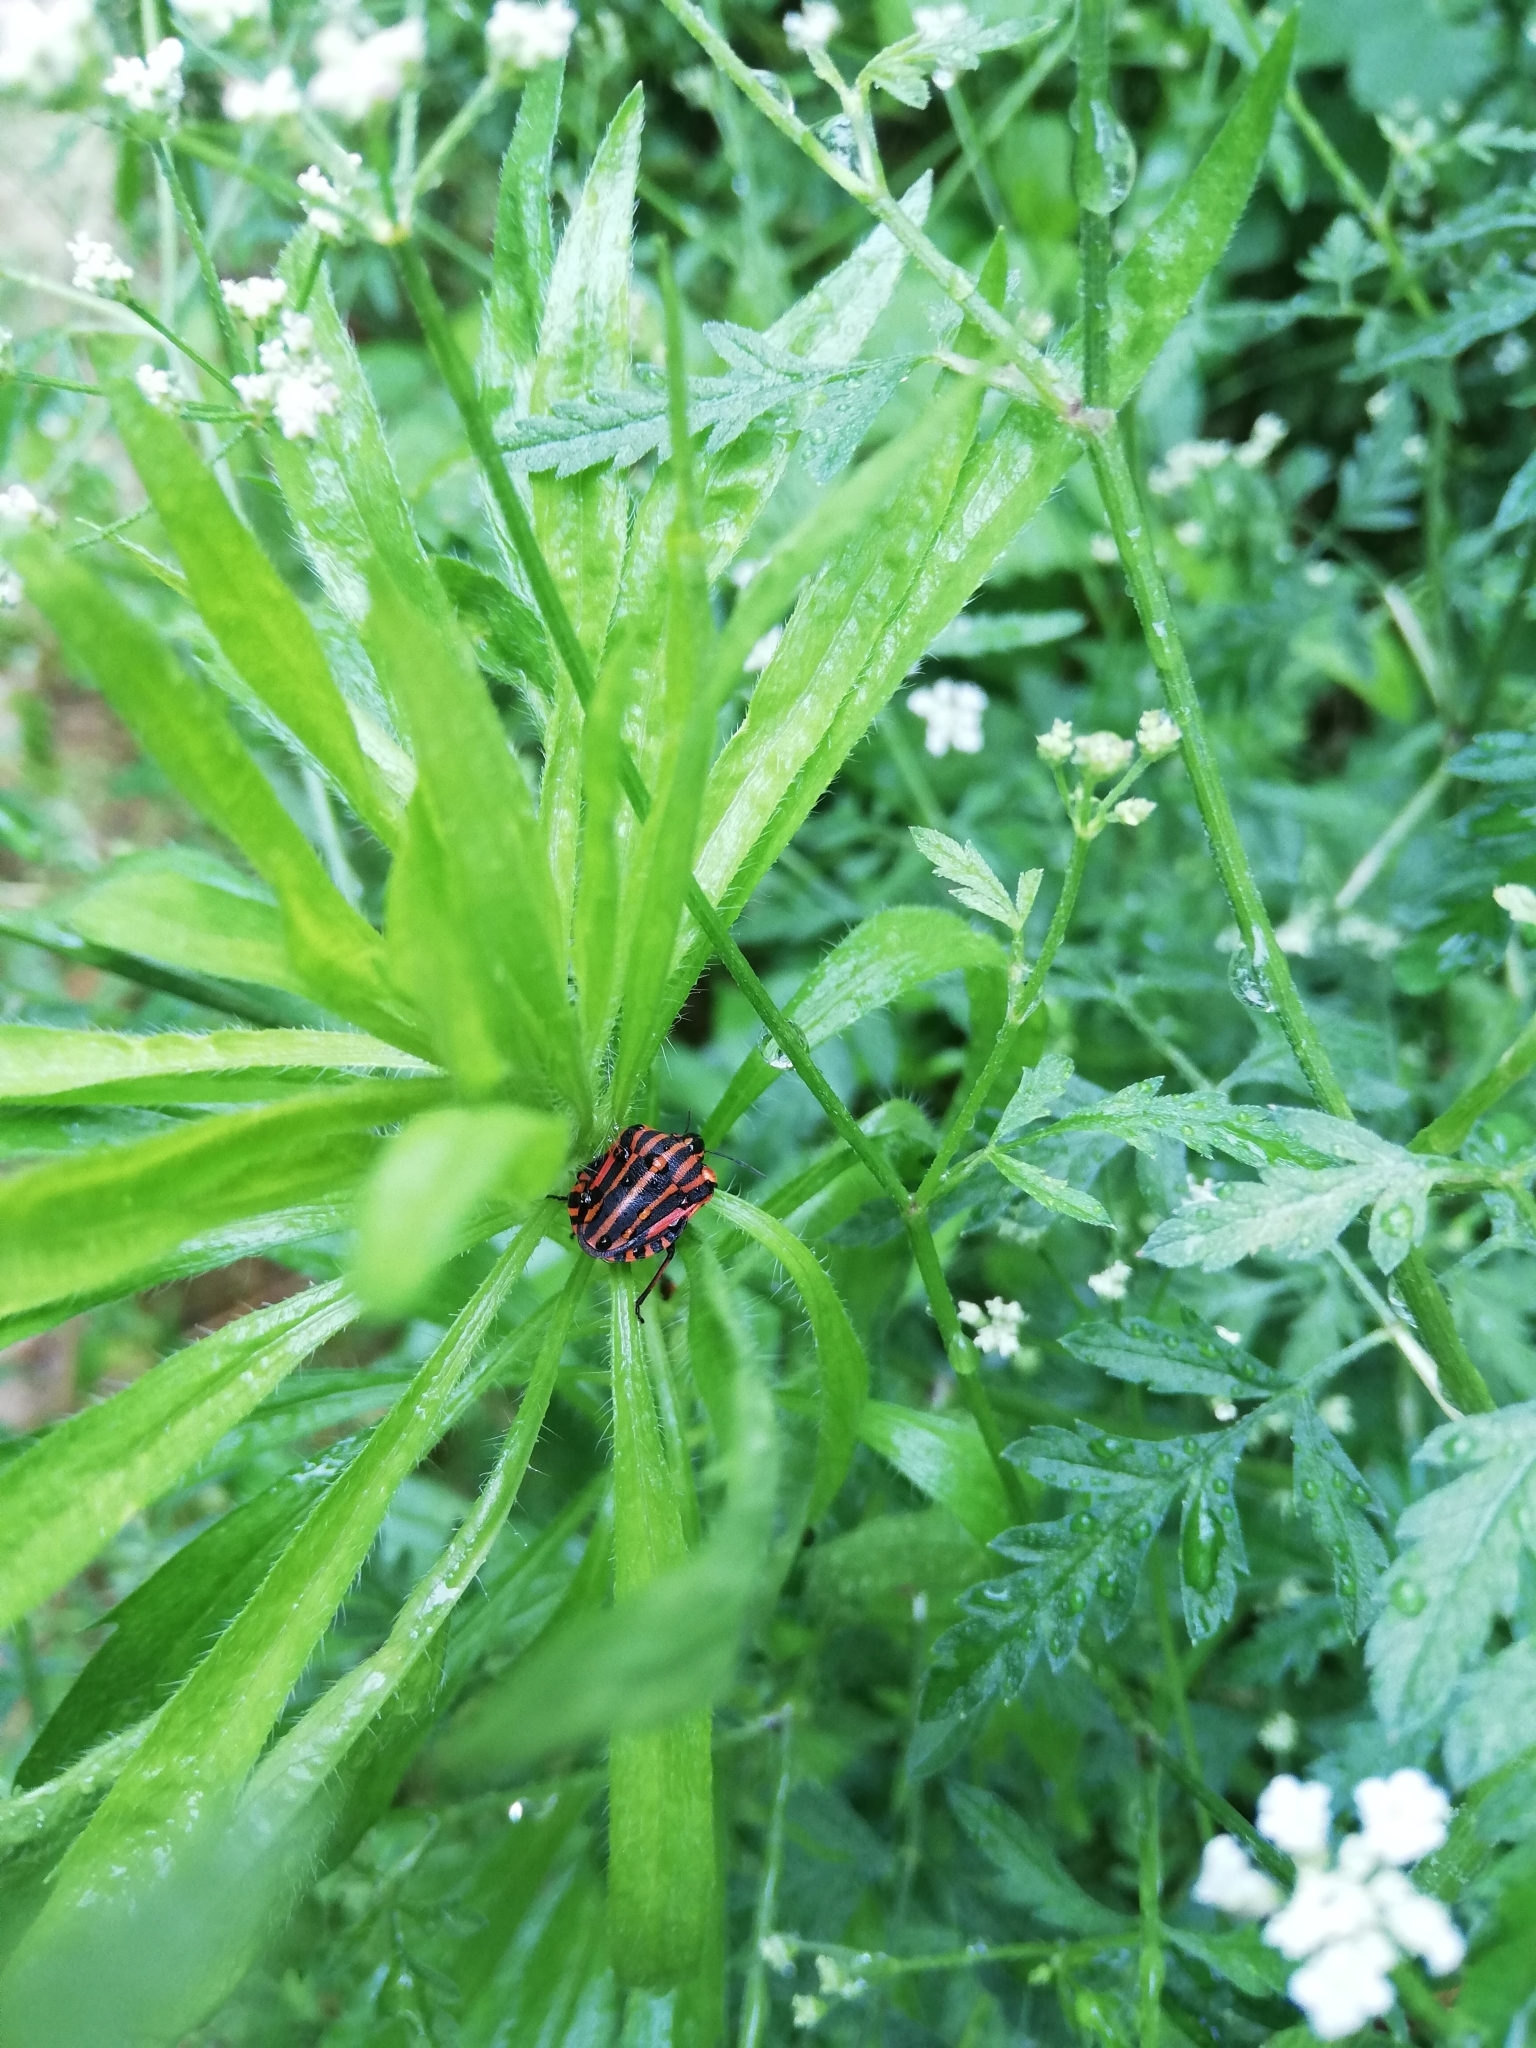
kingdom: Animalia
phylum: Arthropoda
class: Insecta
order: Hemiptera
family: Pentatomidae
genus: Graphosoma
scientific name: Graphosoma italicum
